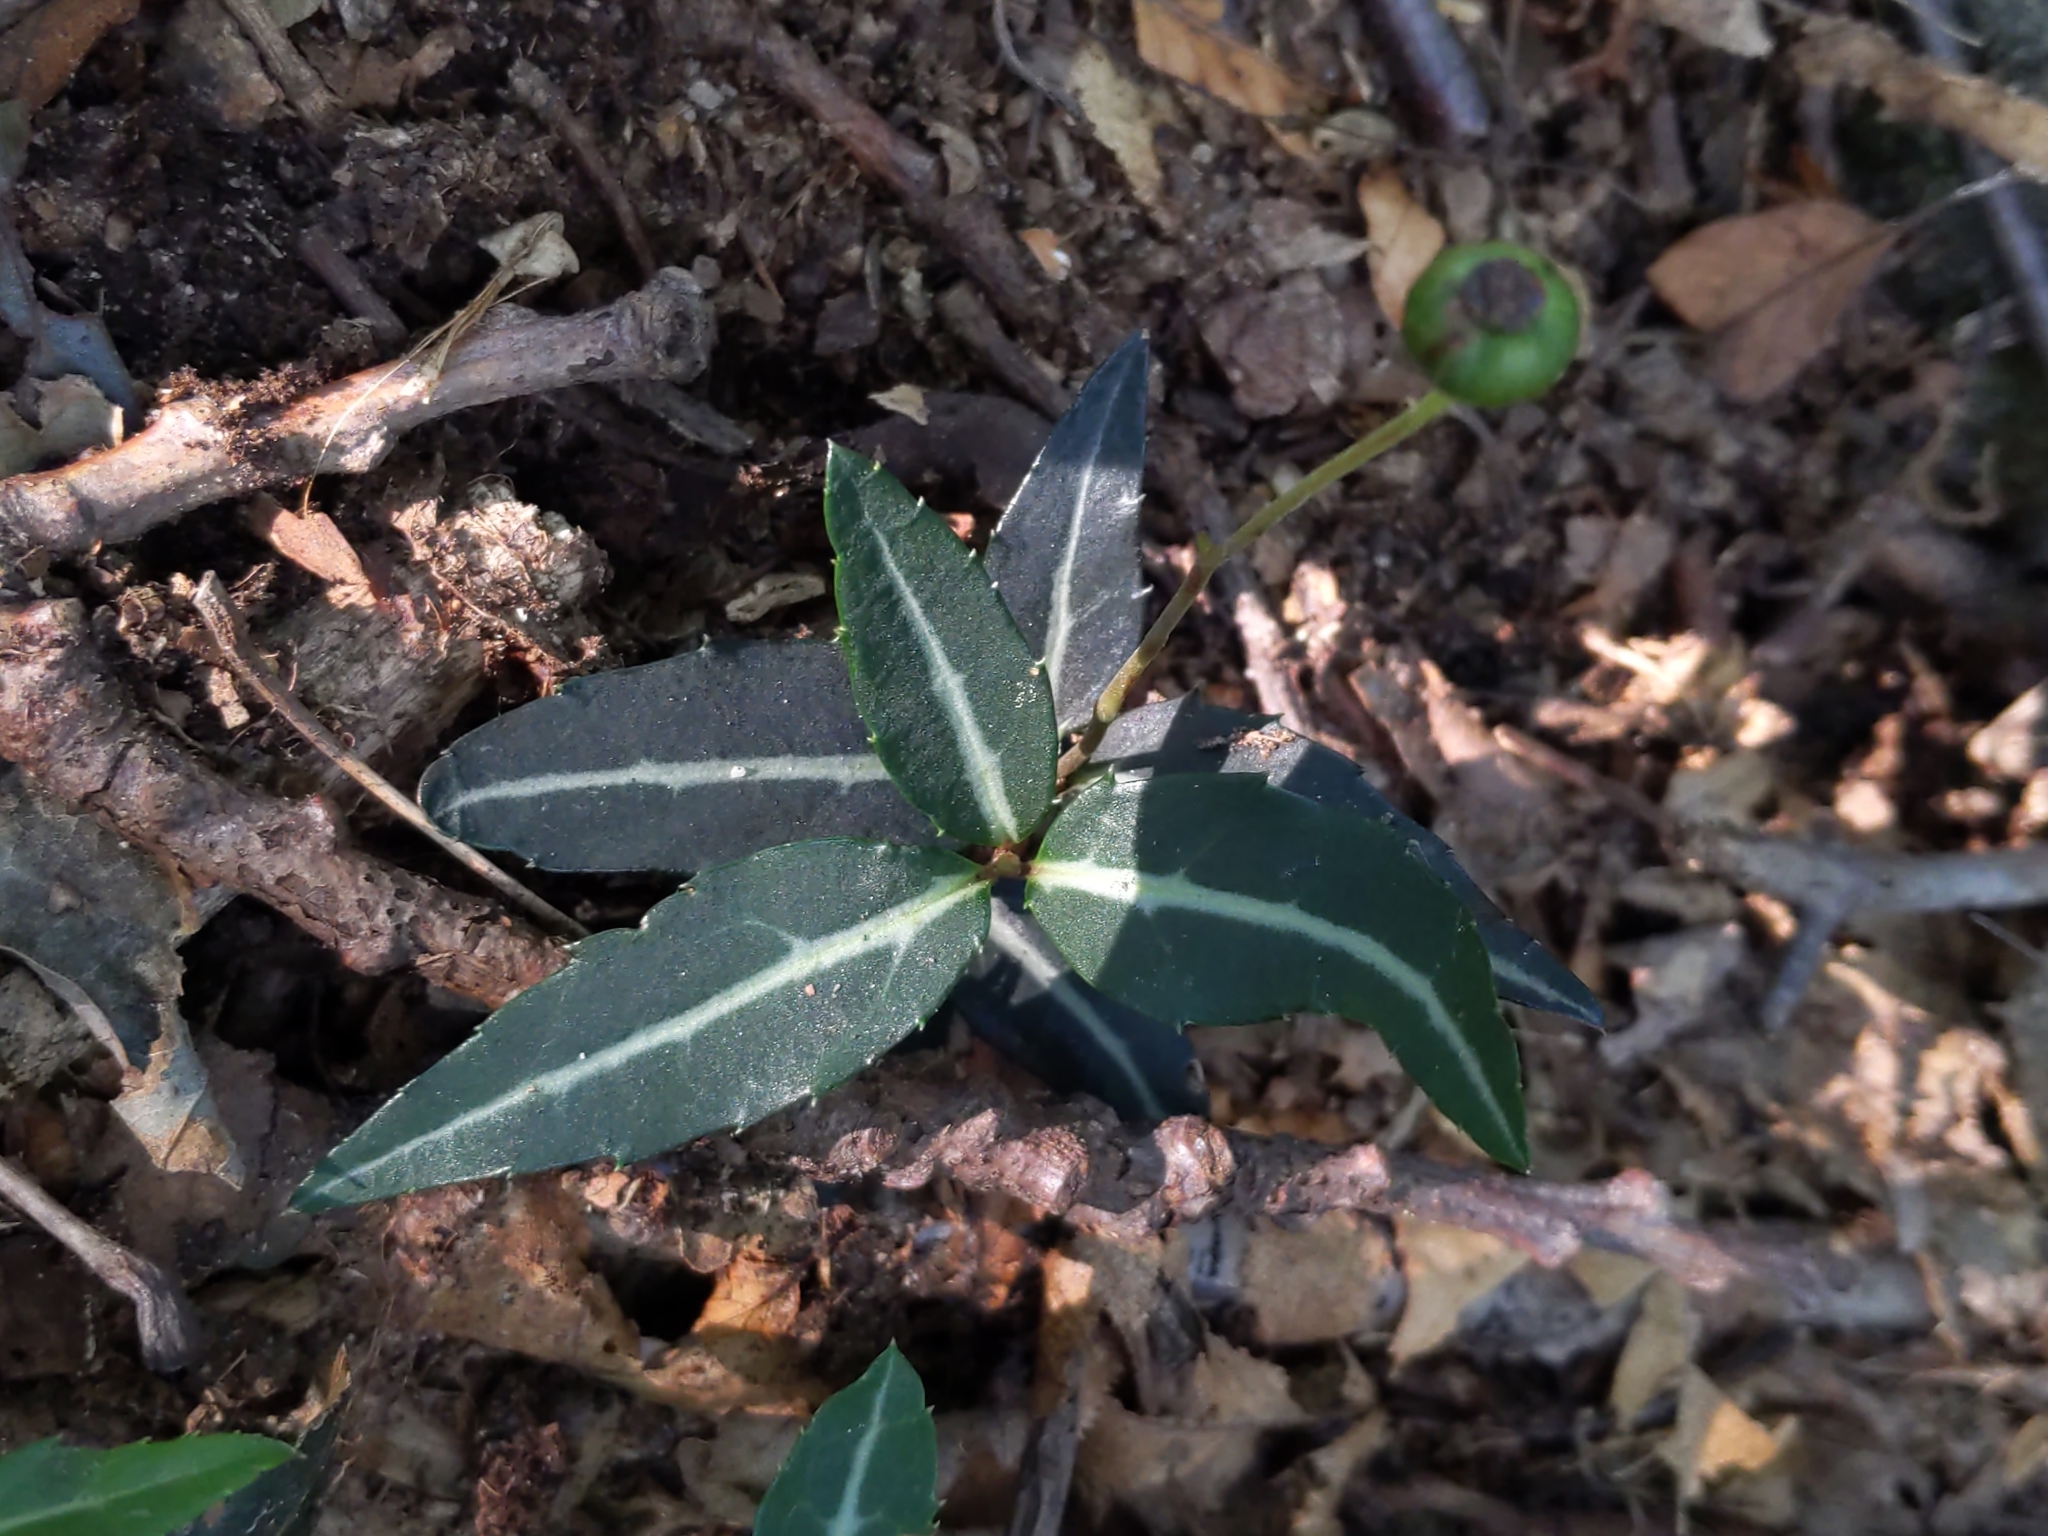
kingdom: Plantae
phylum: Tracheophyta
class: Magnoliopsida
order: Ericales
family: Ericaceae
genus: Chimaphila
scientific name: Chimaphila maculata
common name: Spotted pipsissewa
